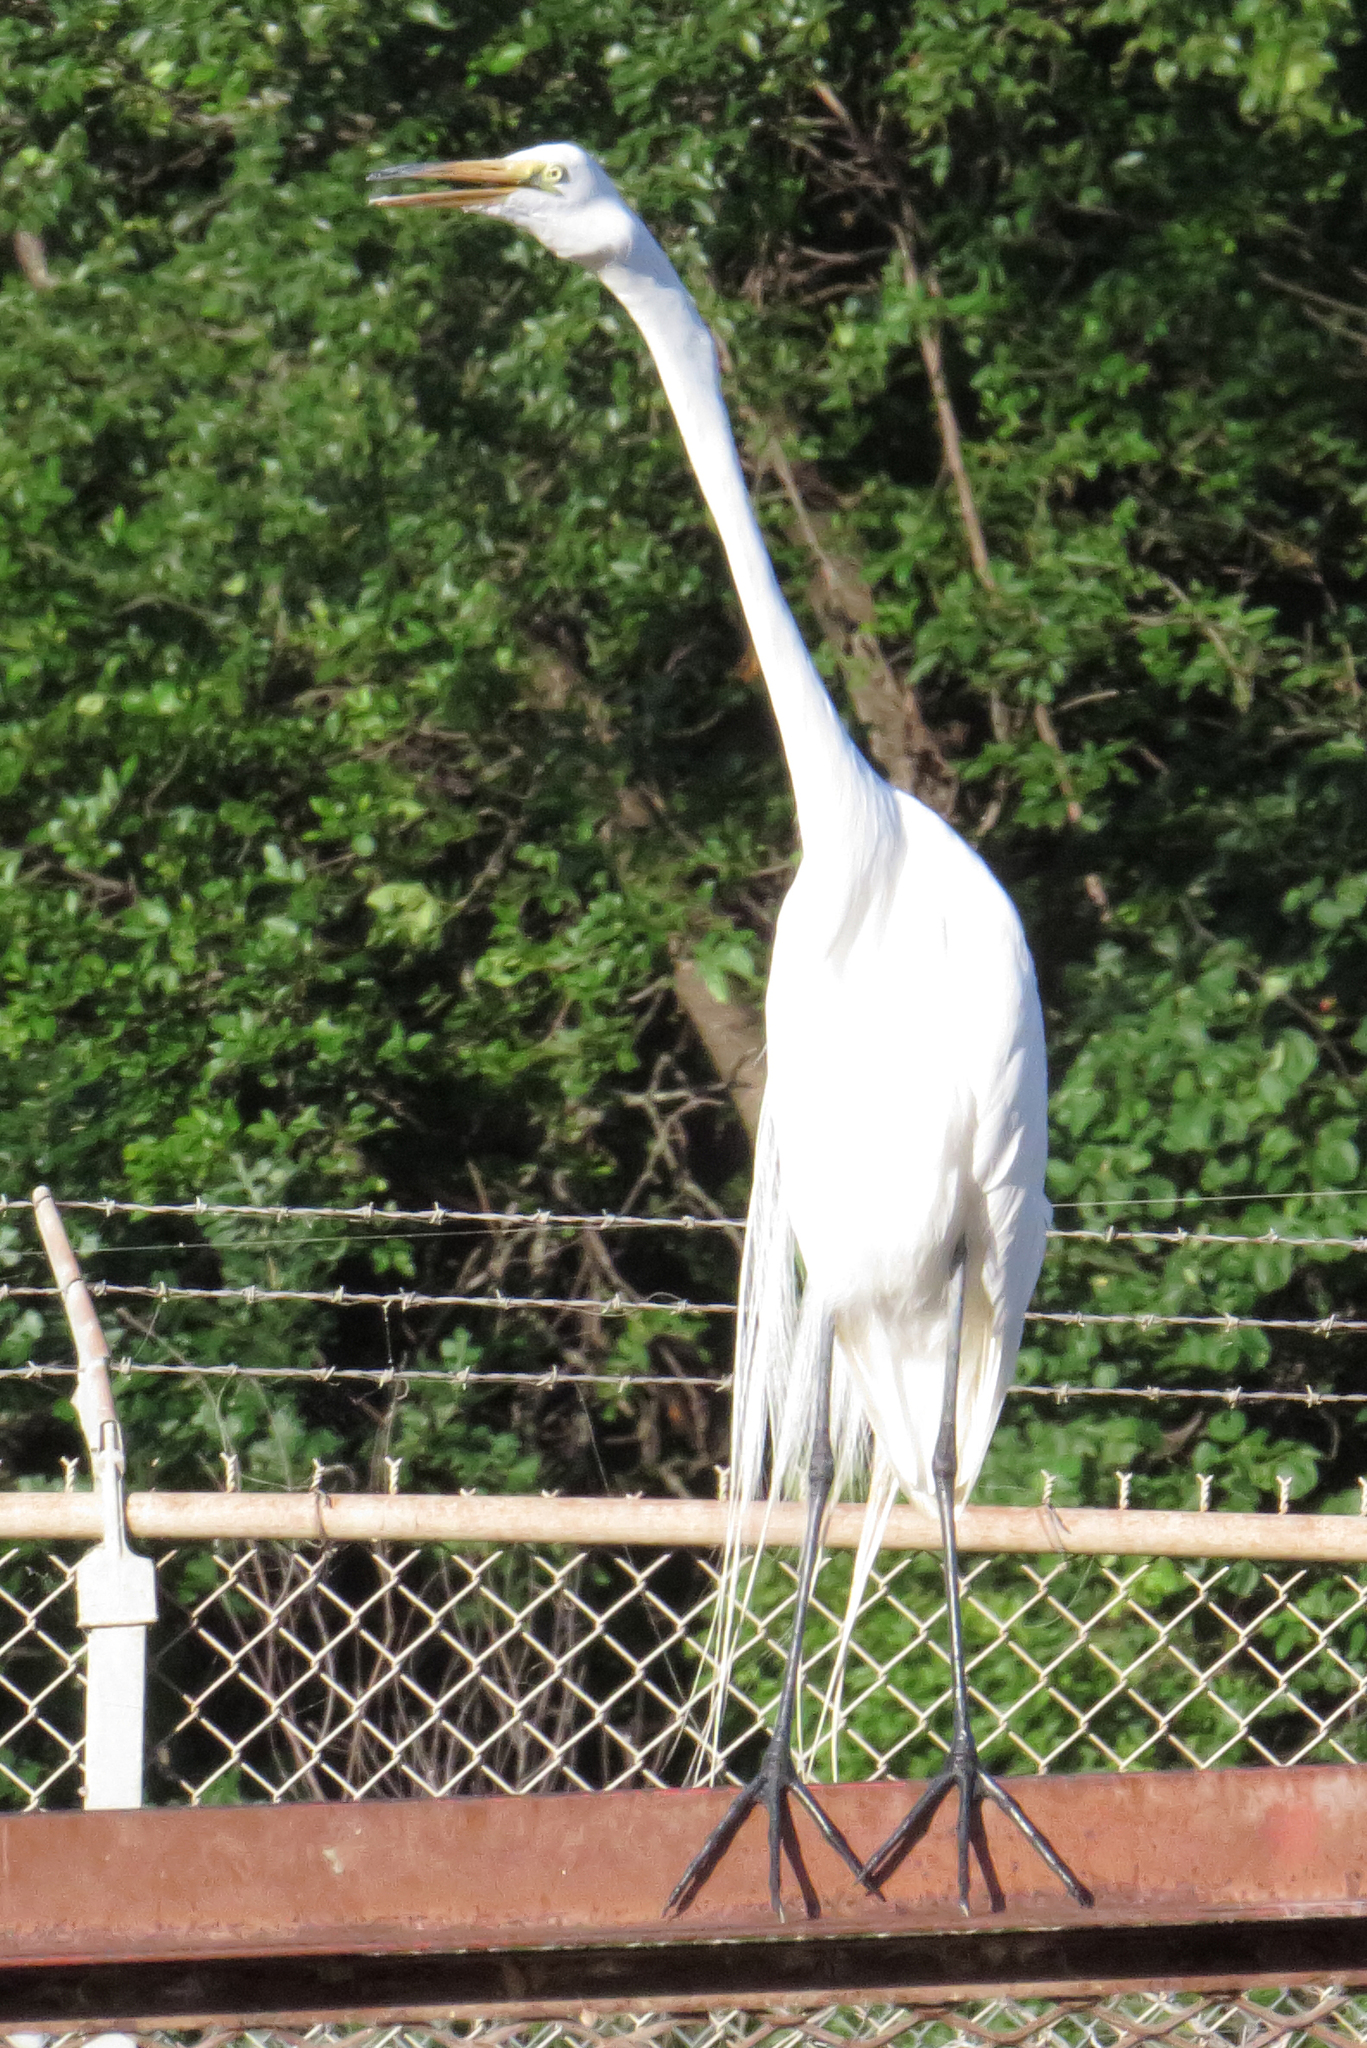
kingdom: Animalia
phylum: Chordata
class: Aves
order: Pelecaniformes
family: Ardeidae
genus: Ardea
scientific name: Ardea alba
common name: Great egret
